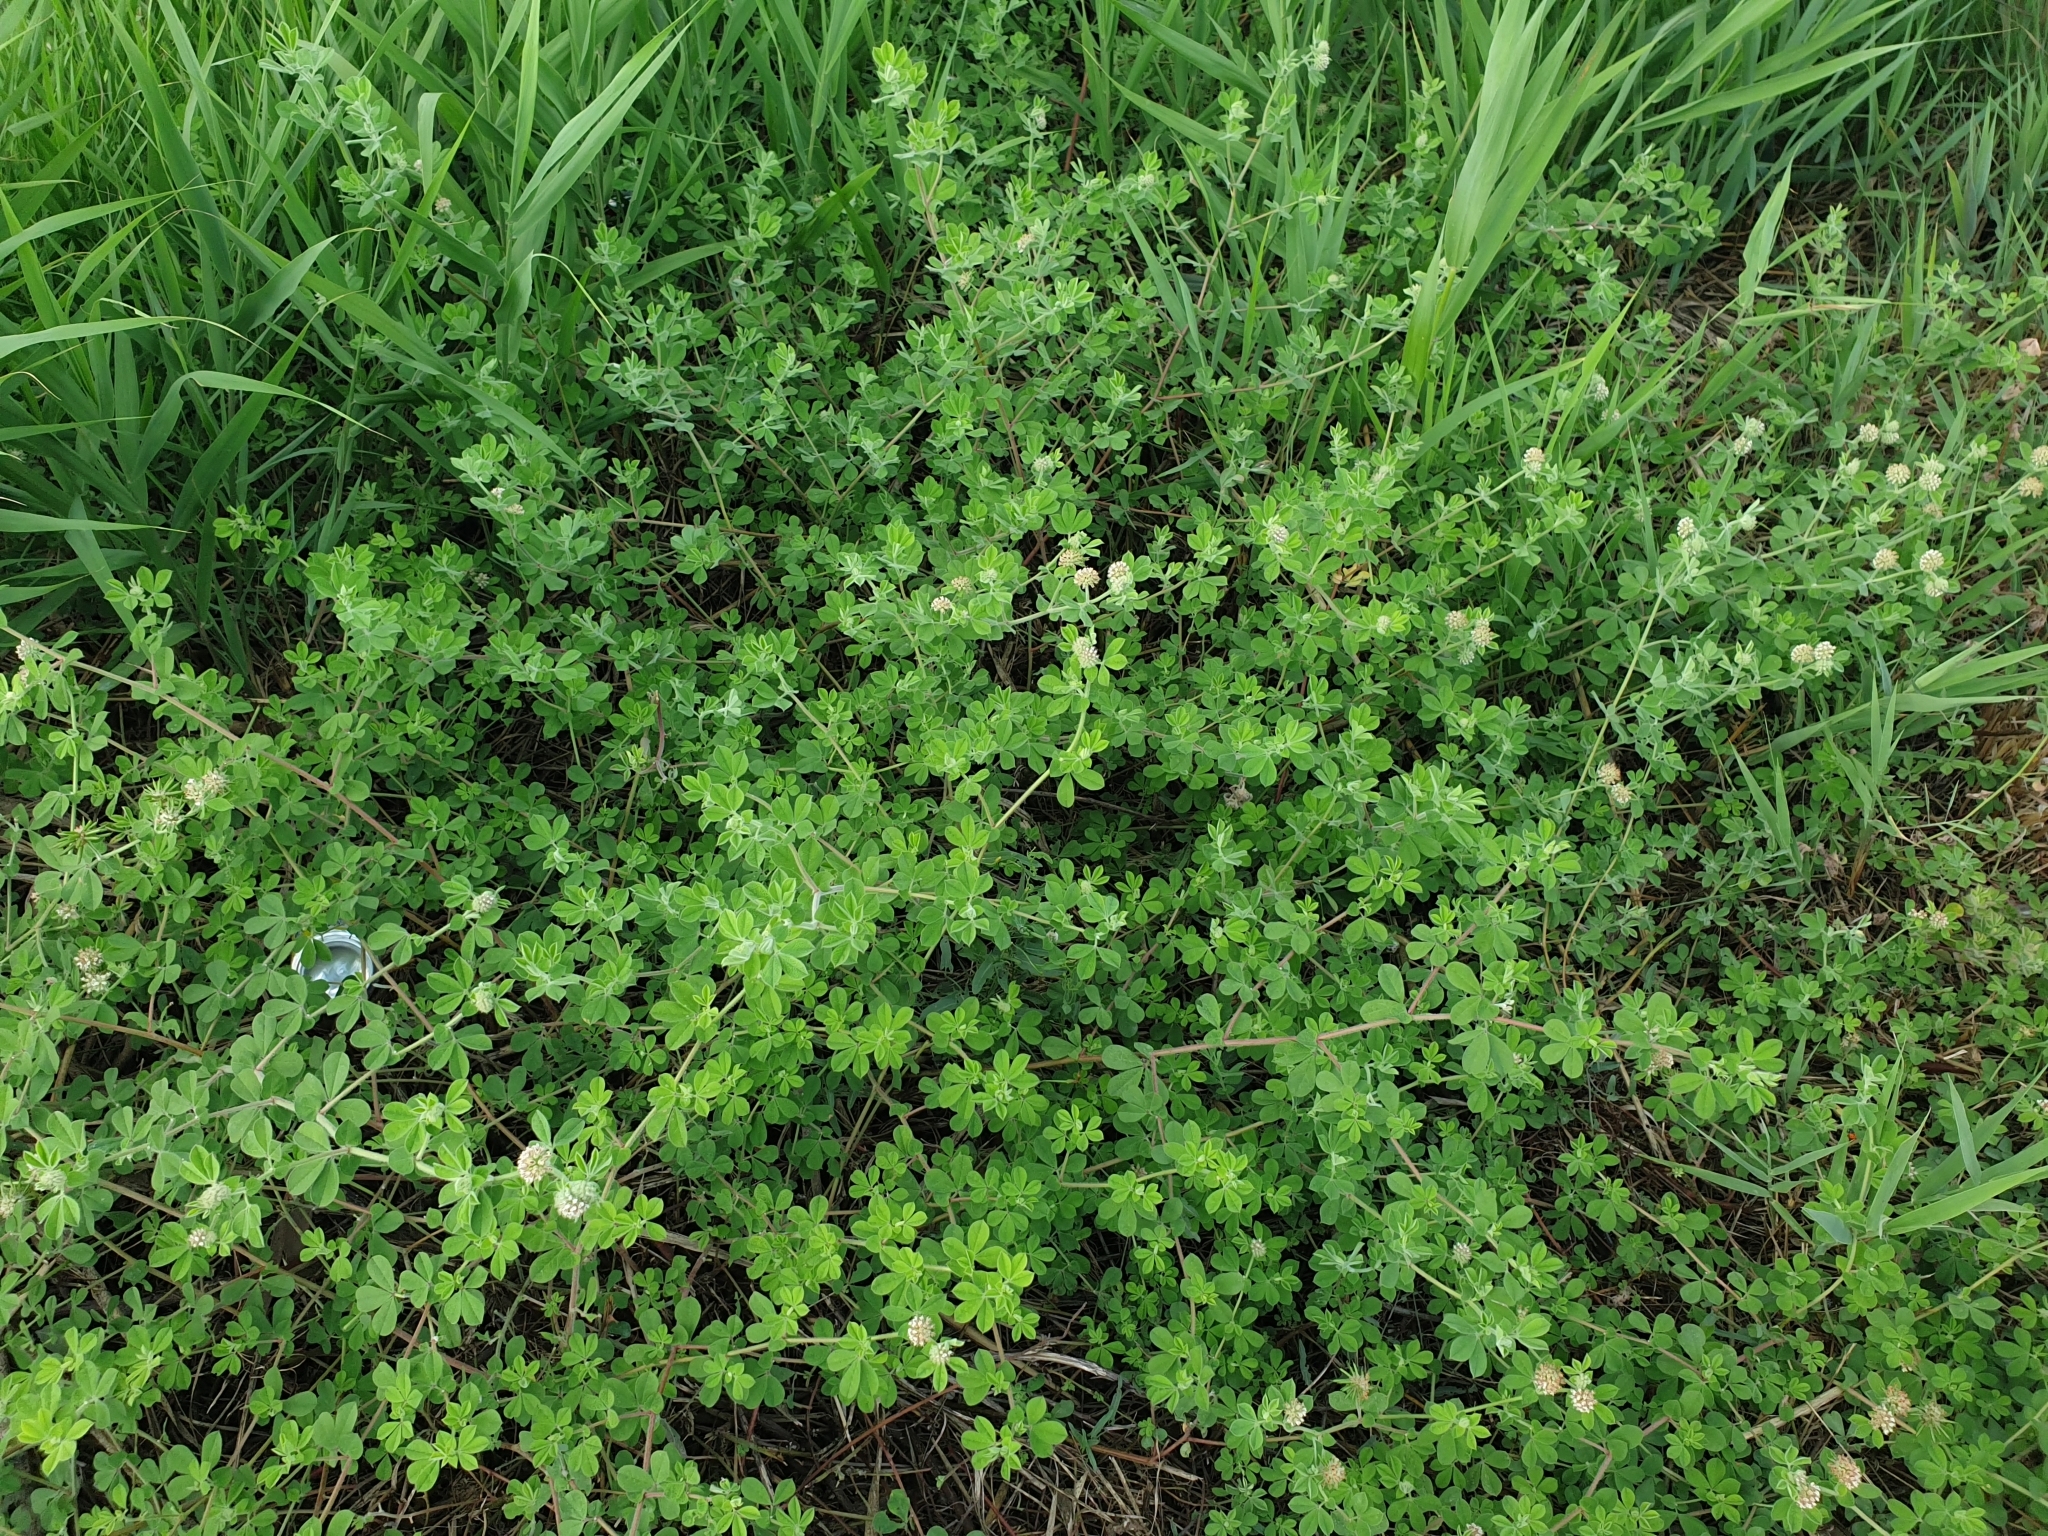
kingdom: Plantae
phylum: Tracheophyta
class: Magnoliopsida
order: Fabales
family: Fabaceae
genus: Lotus
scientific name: Lotus rectus
